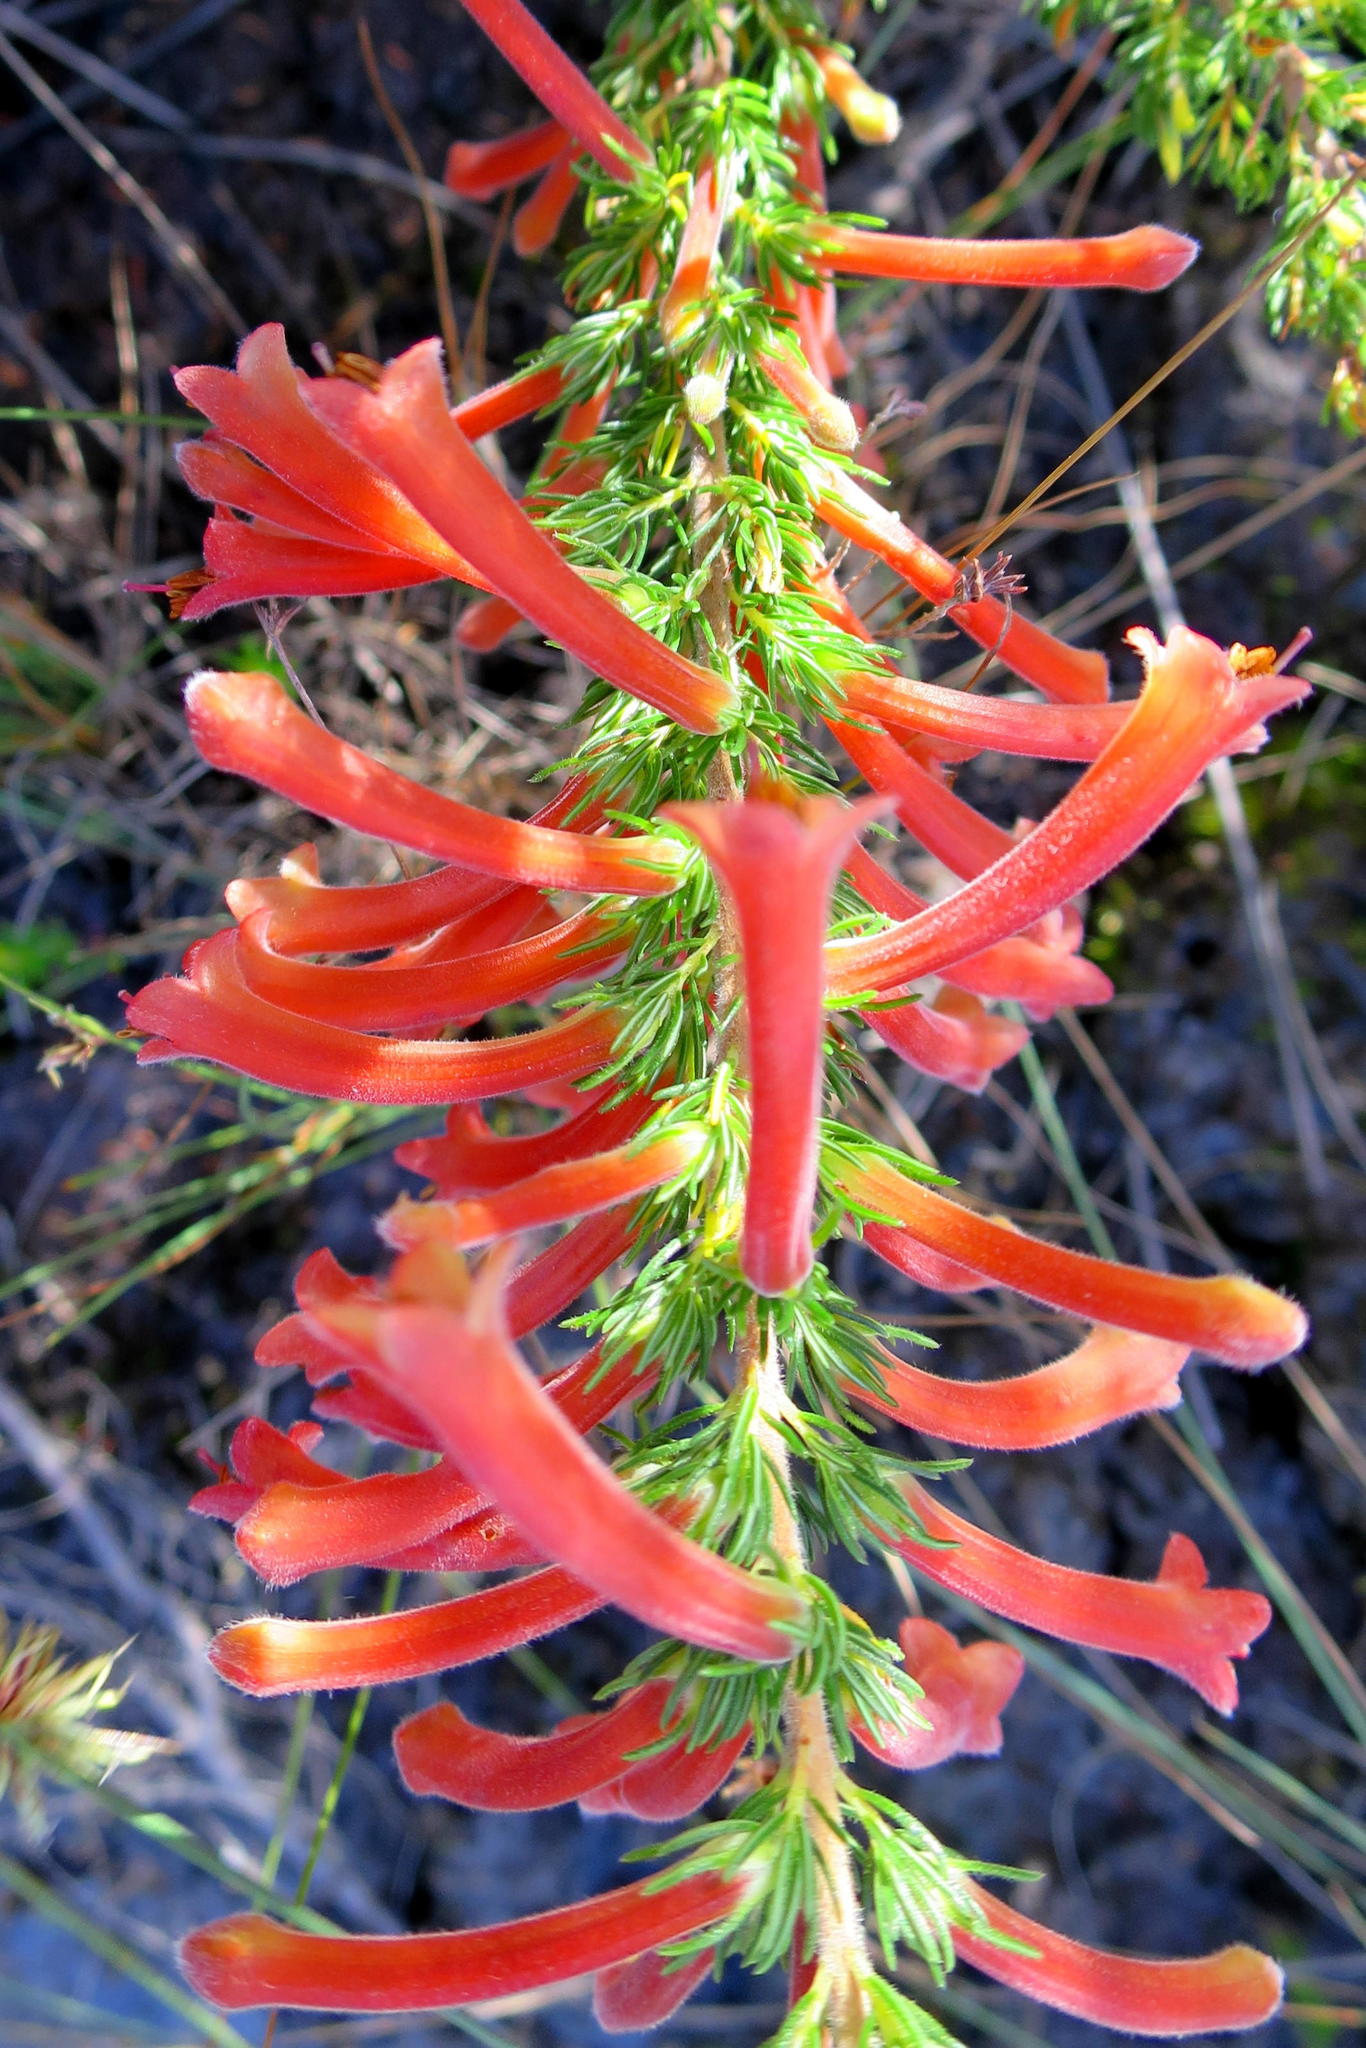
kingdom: Plantae
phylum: Tracheophyta
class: Magnoliopsida
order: Ericales
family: Ericaceae
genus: Erica
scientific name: Erica curviflora
